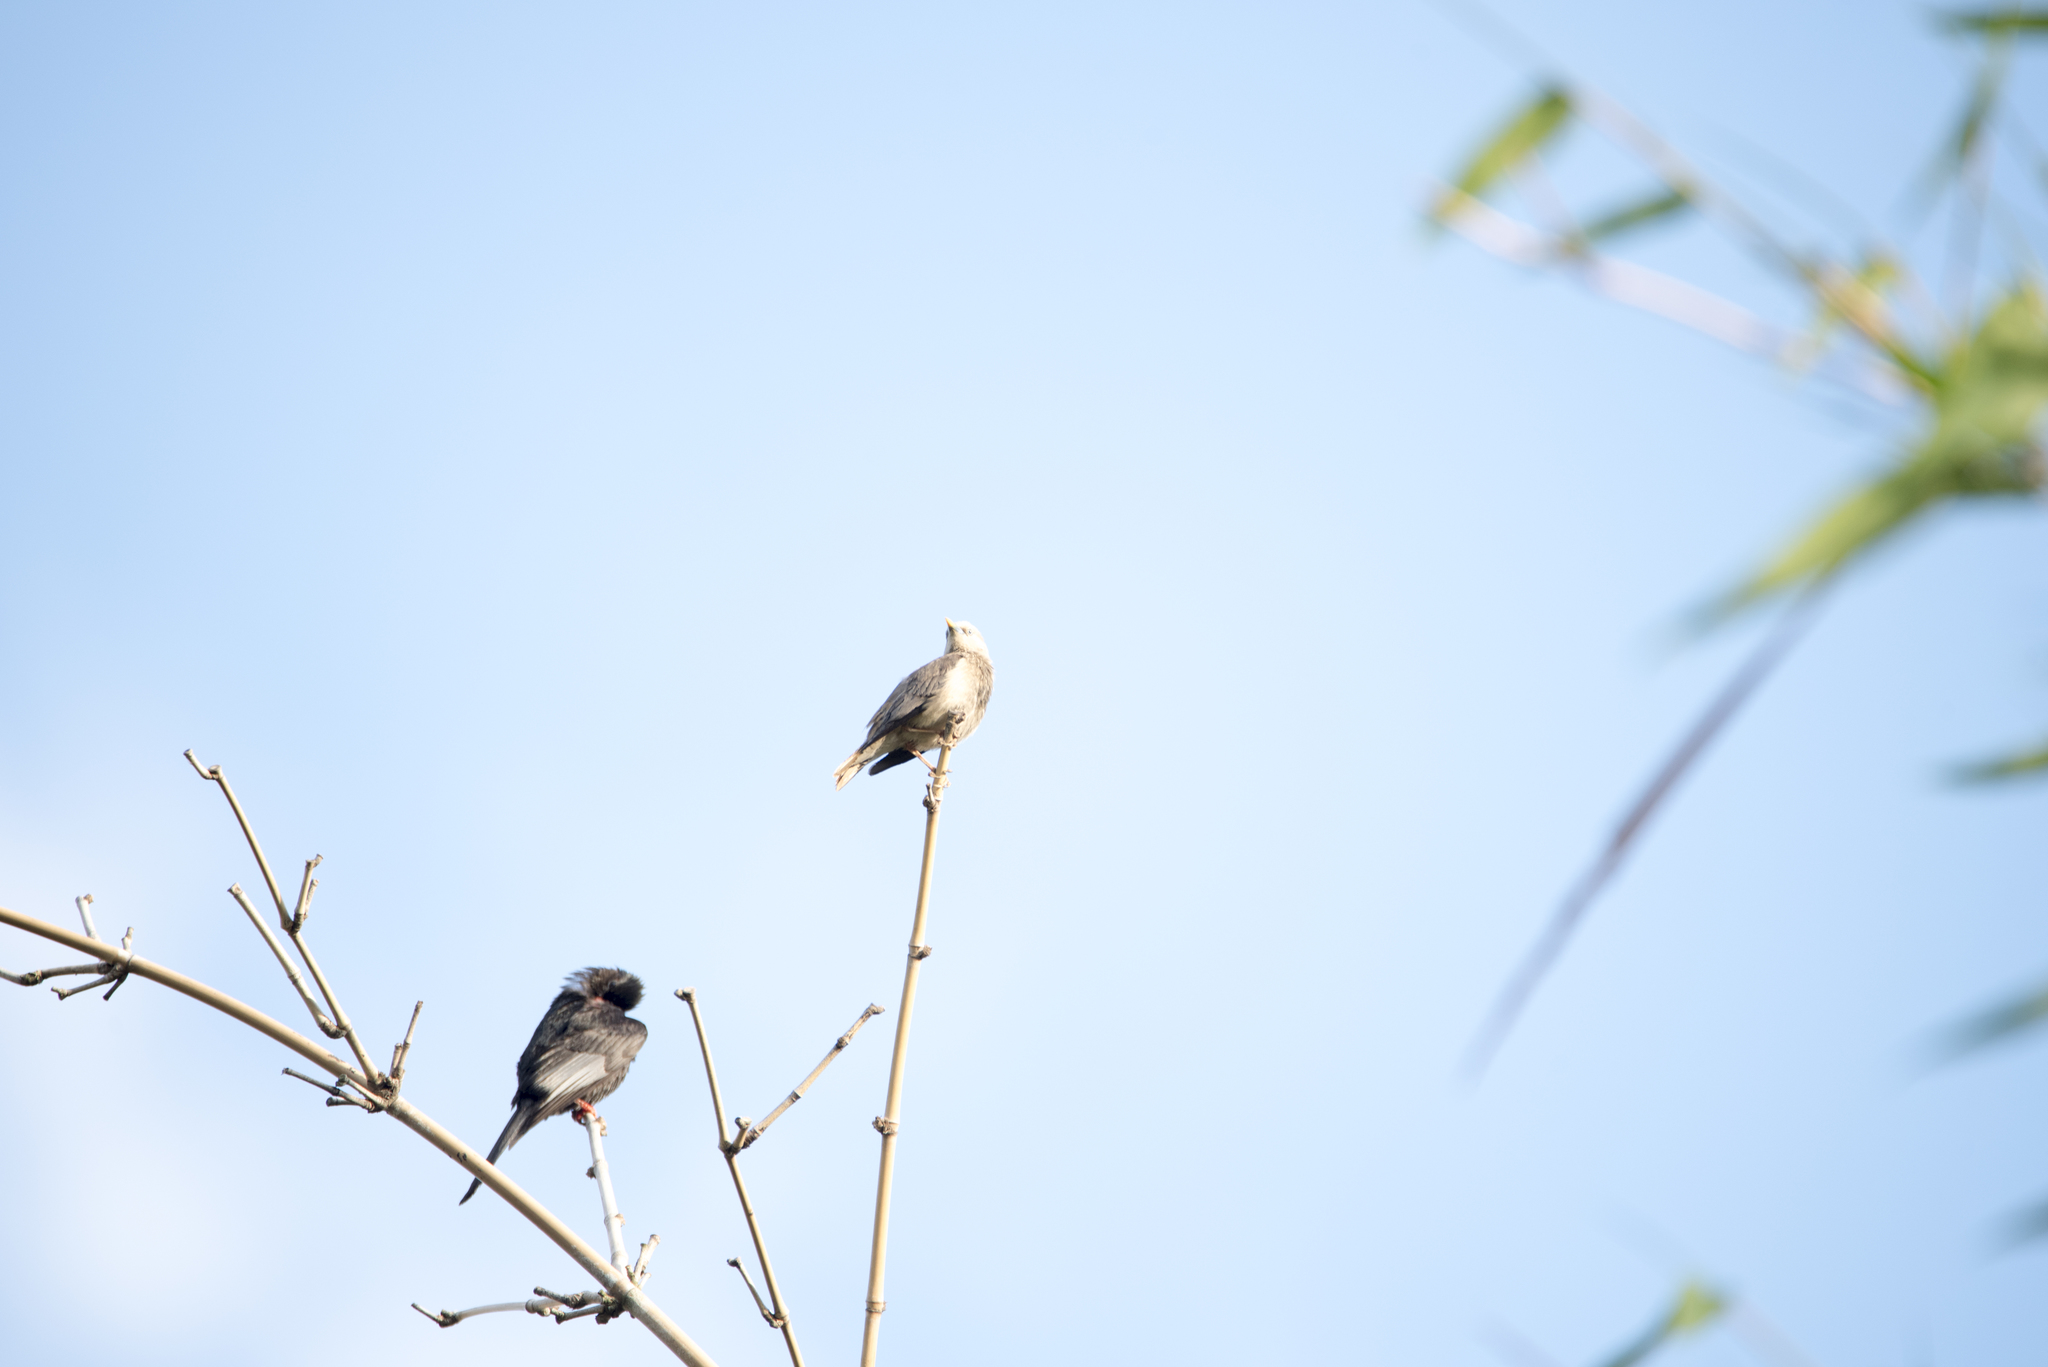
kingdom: Animalia
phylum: Chordata
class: Aves
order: Passeriformes
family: Sturnidae
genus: Sturnia
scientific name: Sturnia malabarica
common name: Chestnut-tailed starling
